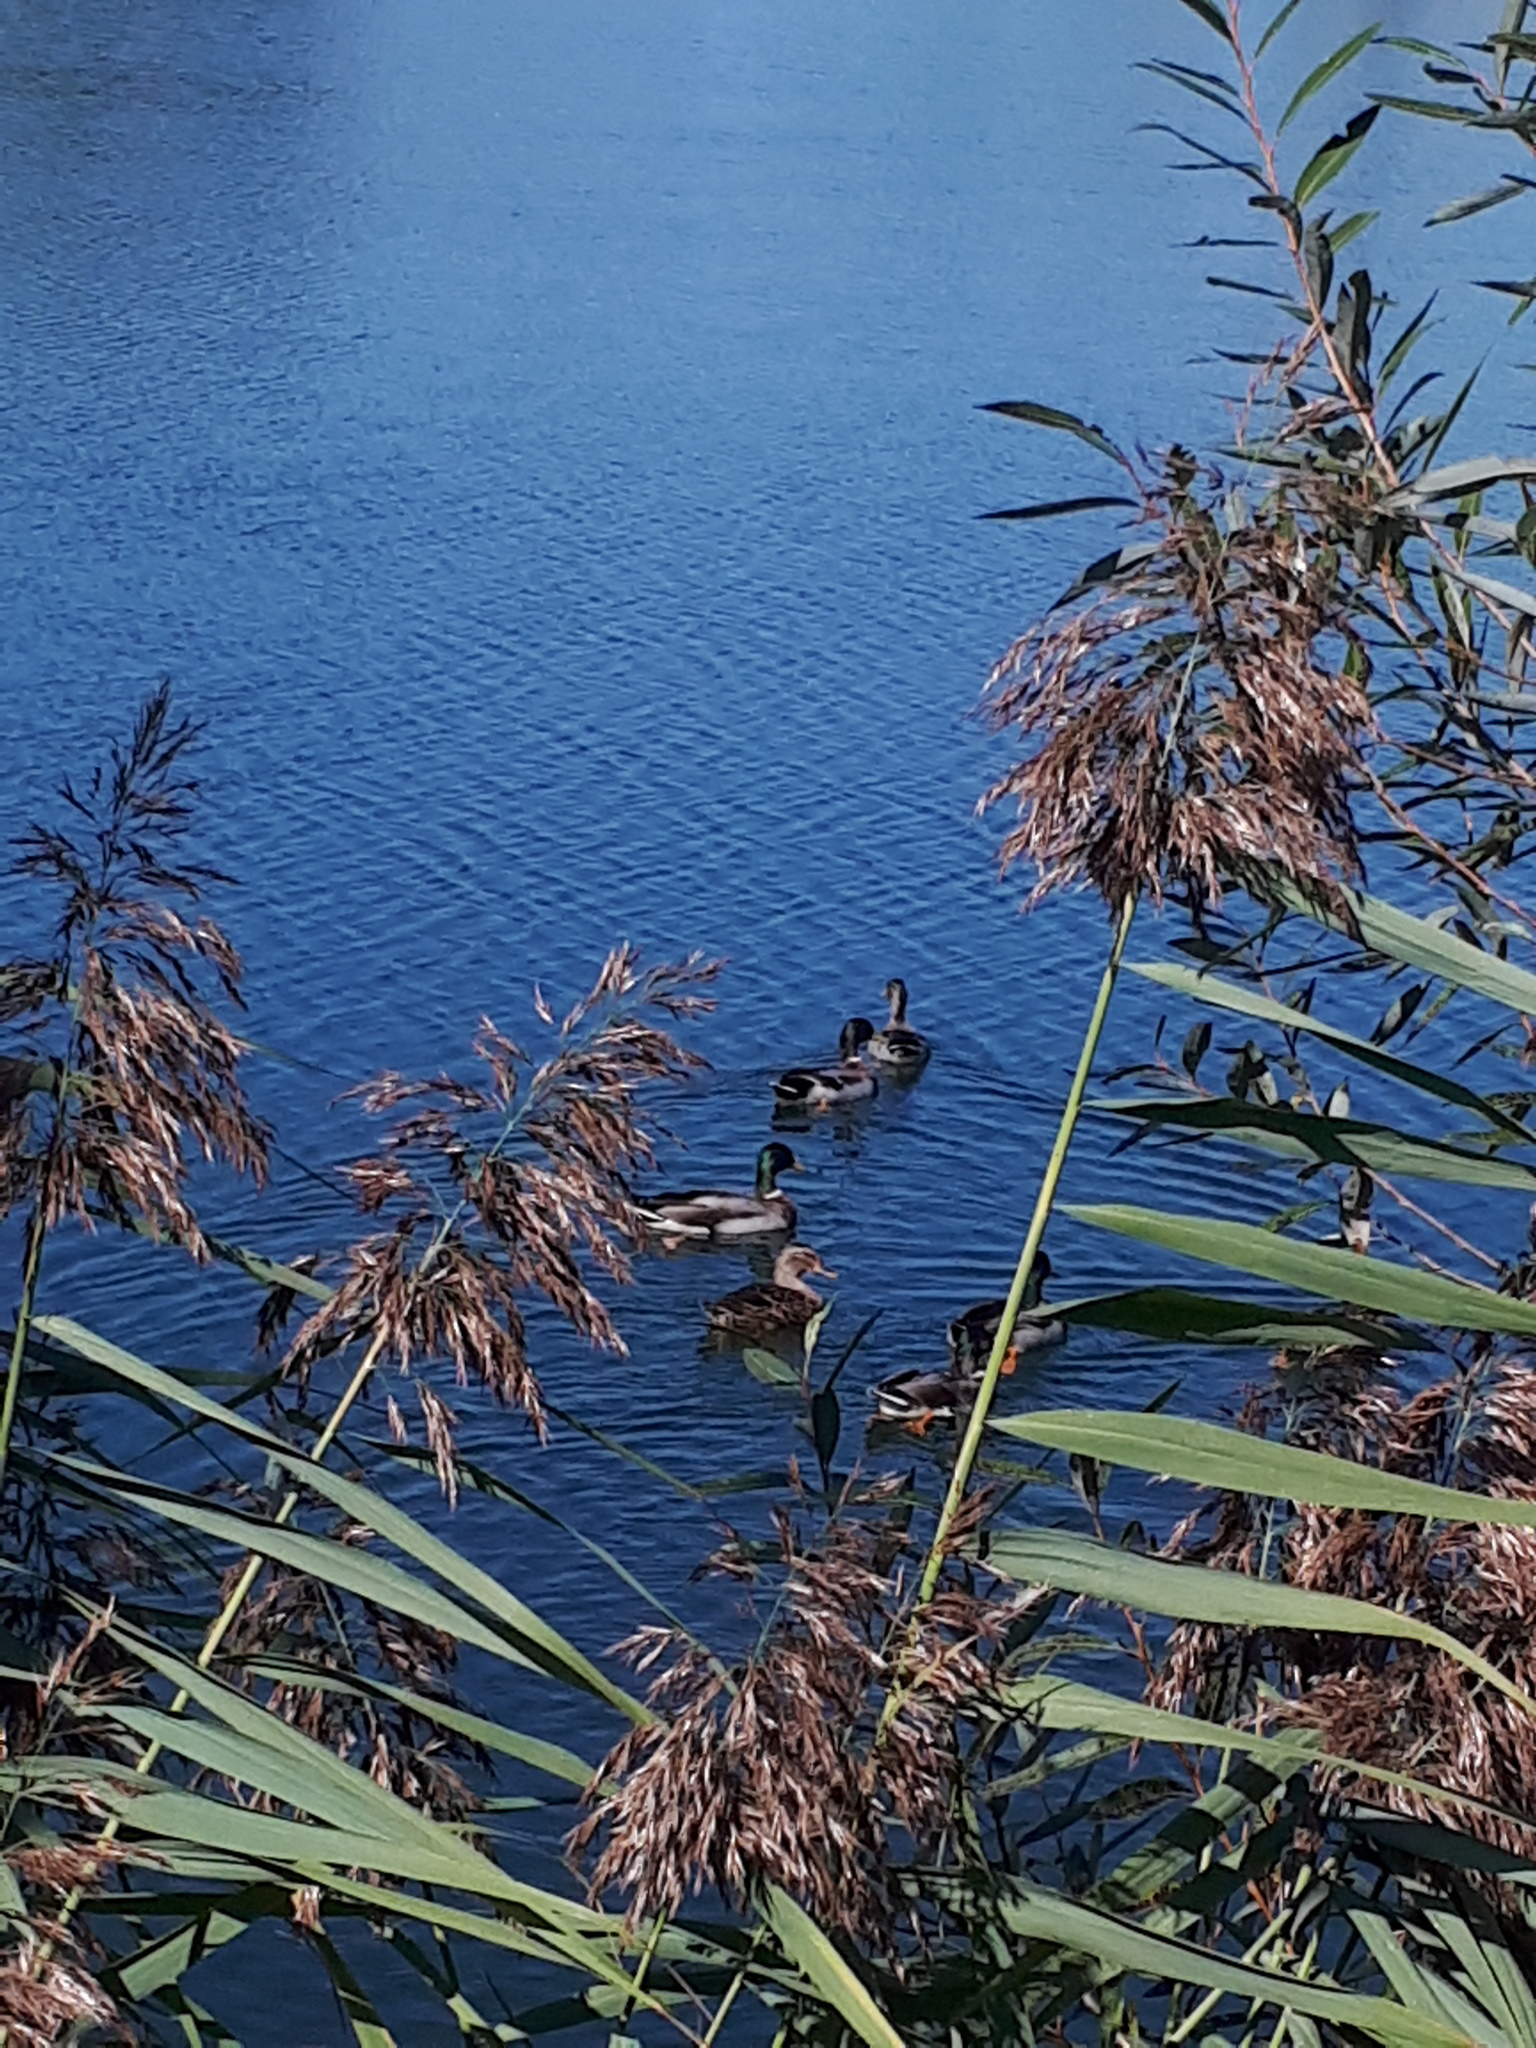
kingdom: Animalia
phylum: Chordata
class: Aves
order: Anseriformes
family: Anatidae
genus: Anas
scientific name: Anas platyrhynchos
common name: Mallard
